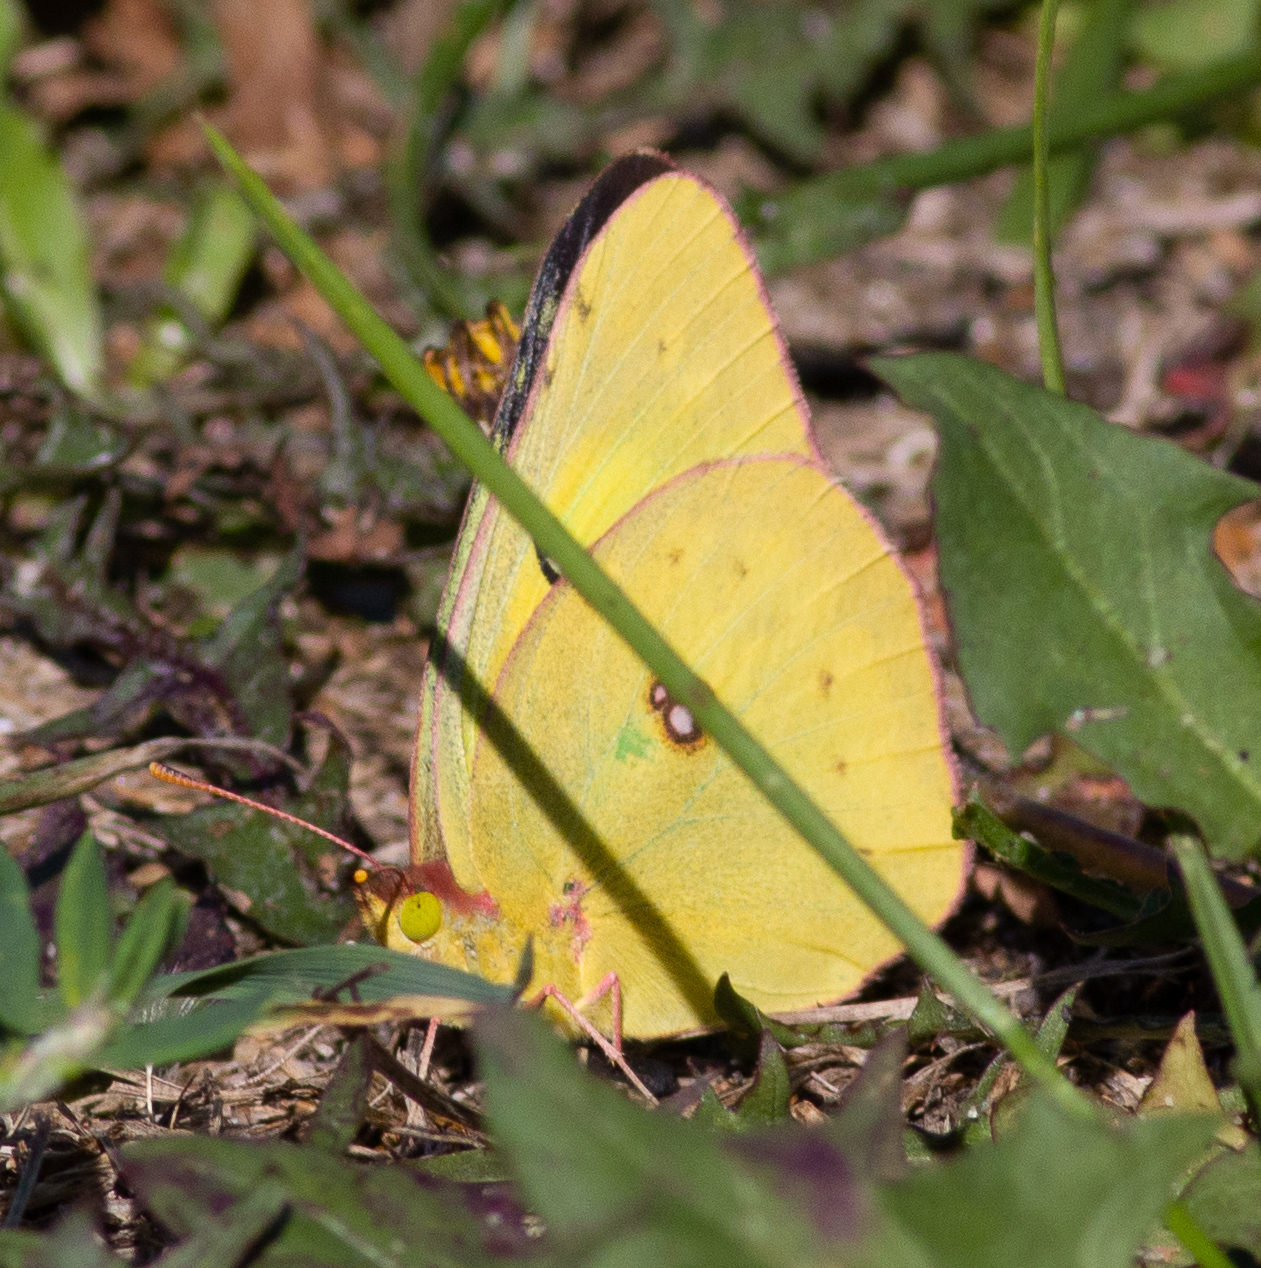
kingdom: Animalia
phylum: Arthropoda
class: Insecta
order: Lepidoptera
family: Pieridae
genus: Colias
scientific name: Colias philodice
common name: Clouded sulphur
